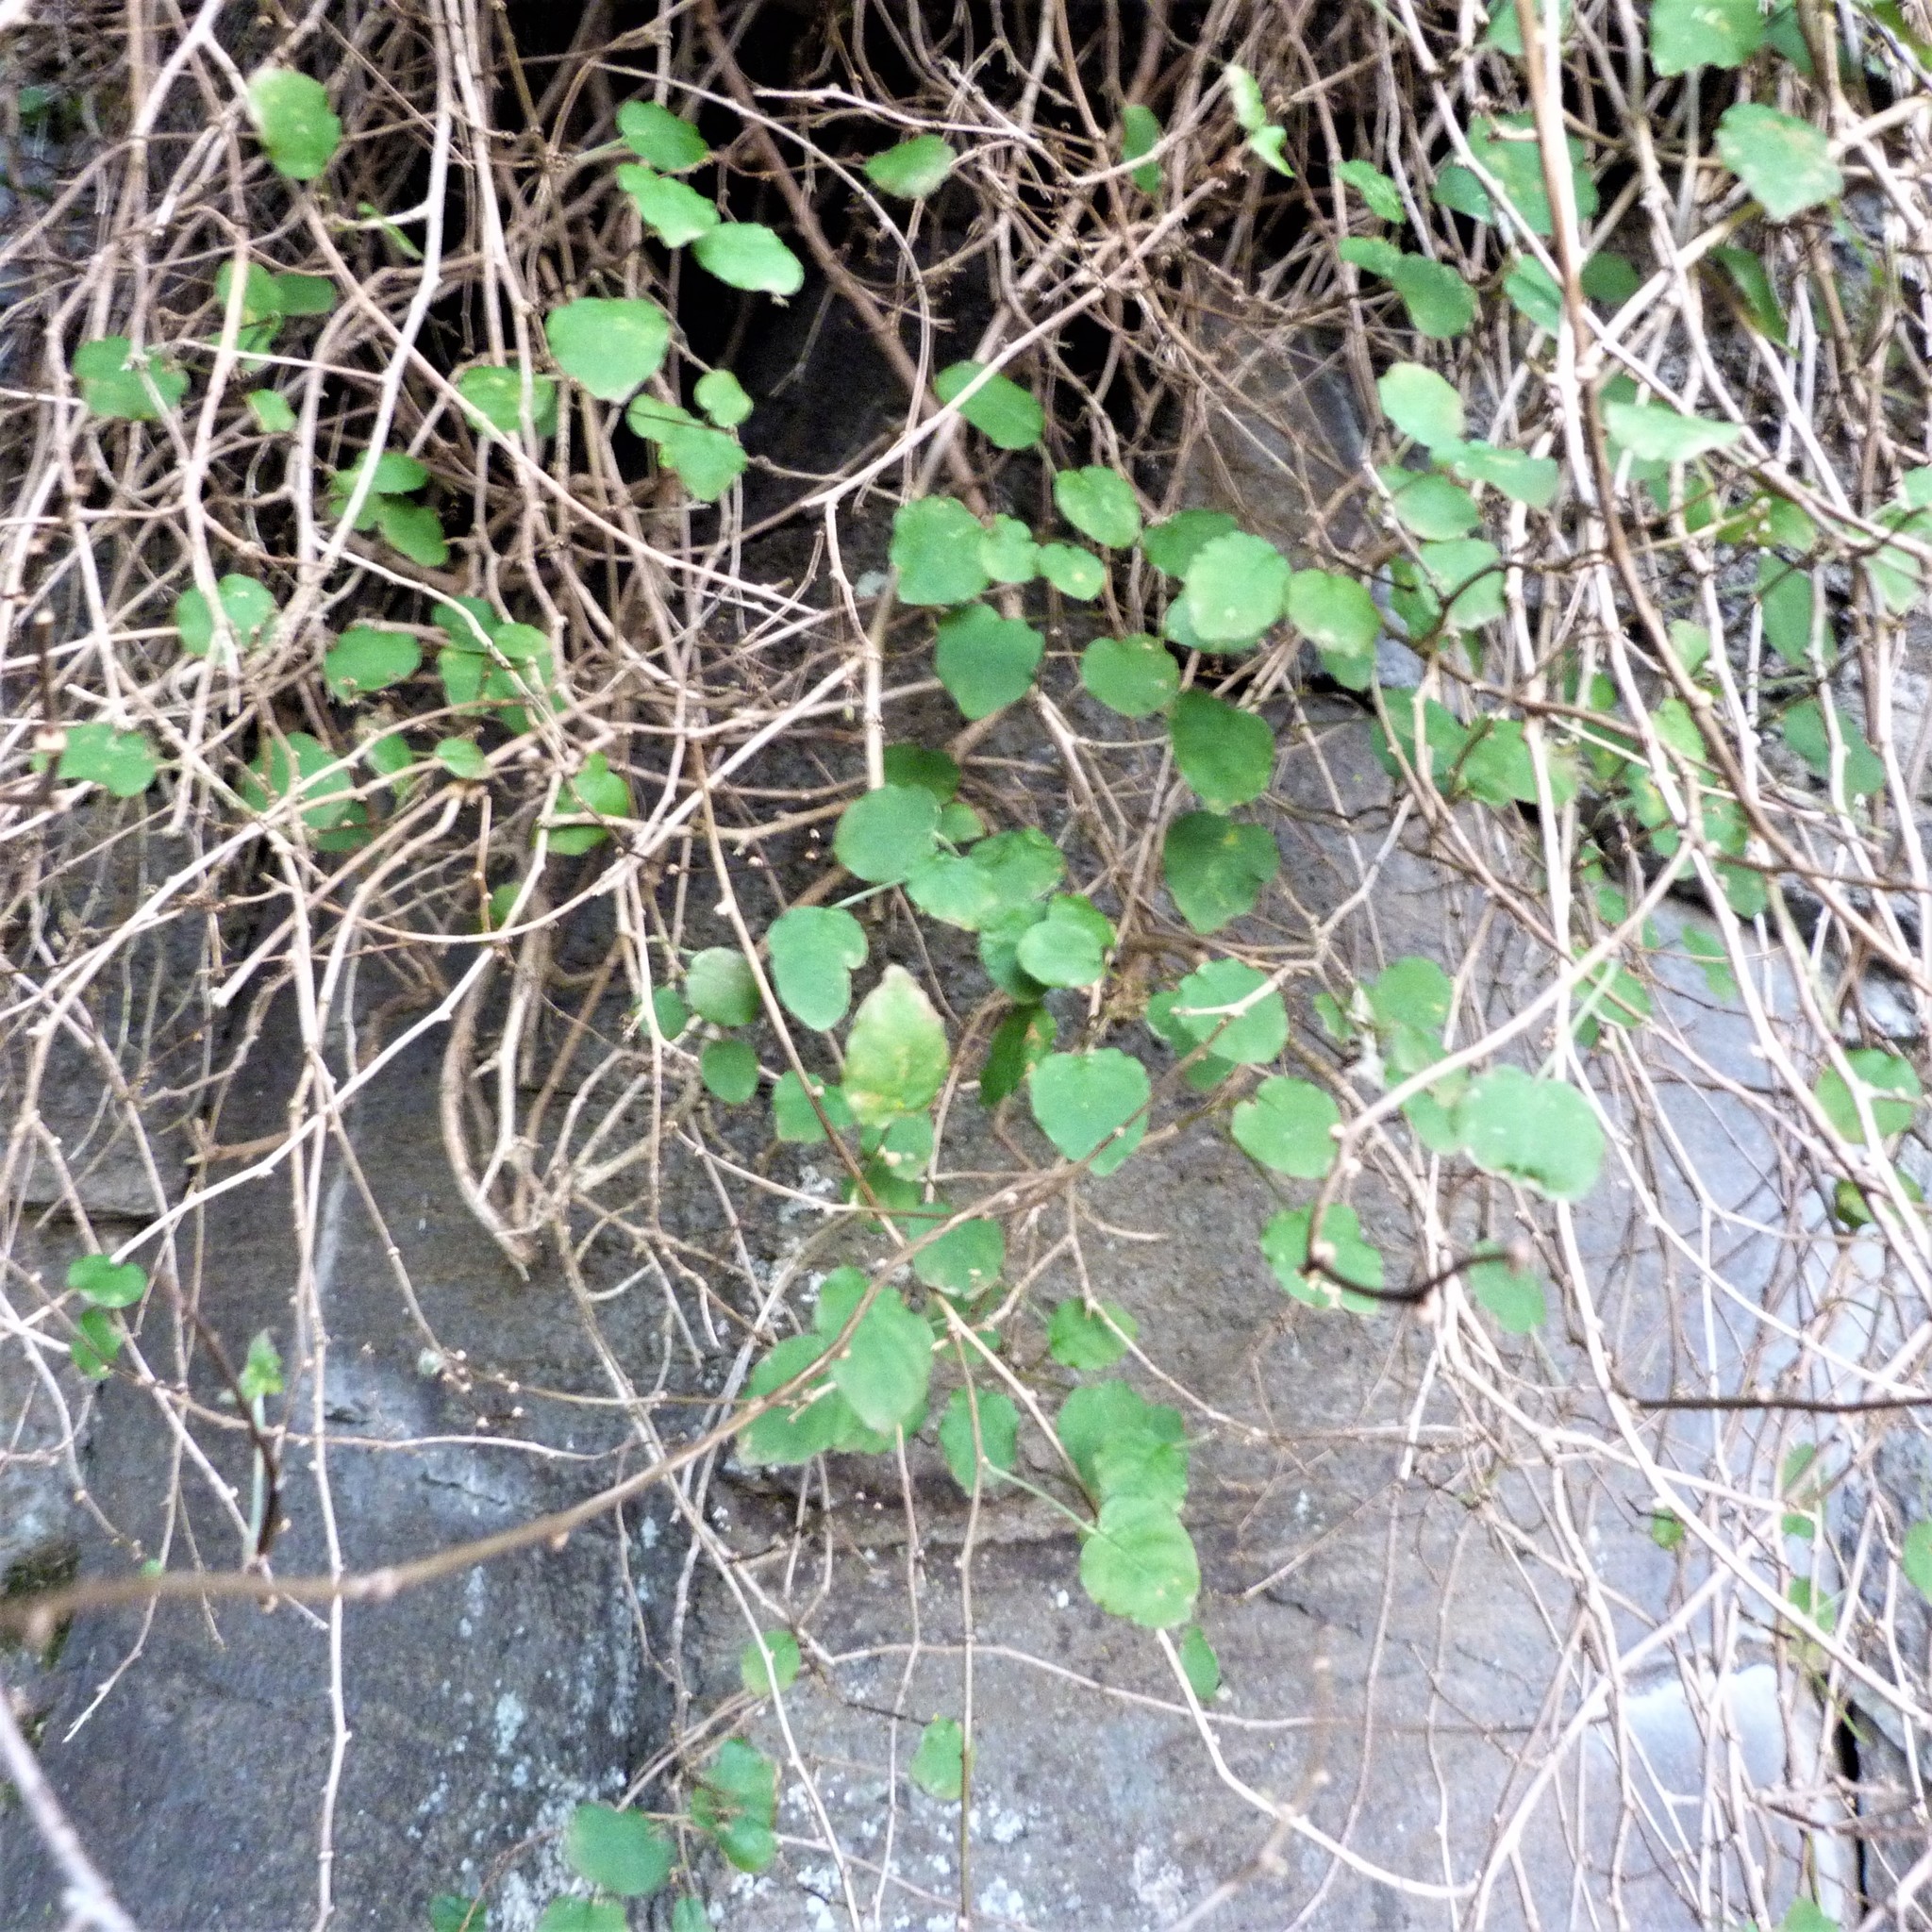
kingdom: Plantae
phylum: Tracheophyta
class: Magnoliopsida
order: Myrtales
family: Onagraceae
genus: Fuchsia
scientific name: Fuchsia colensoi
